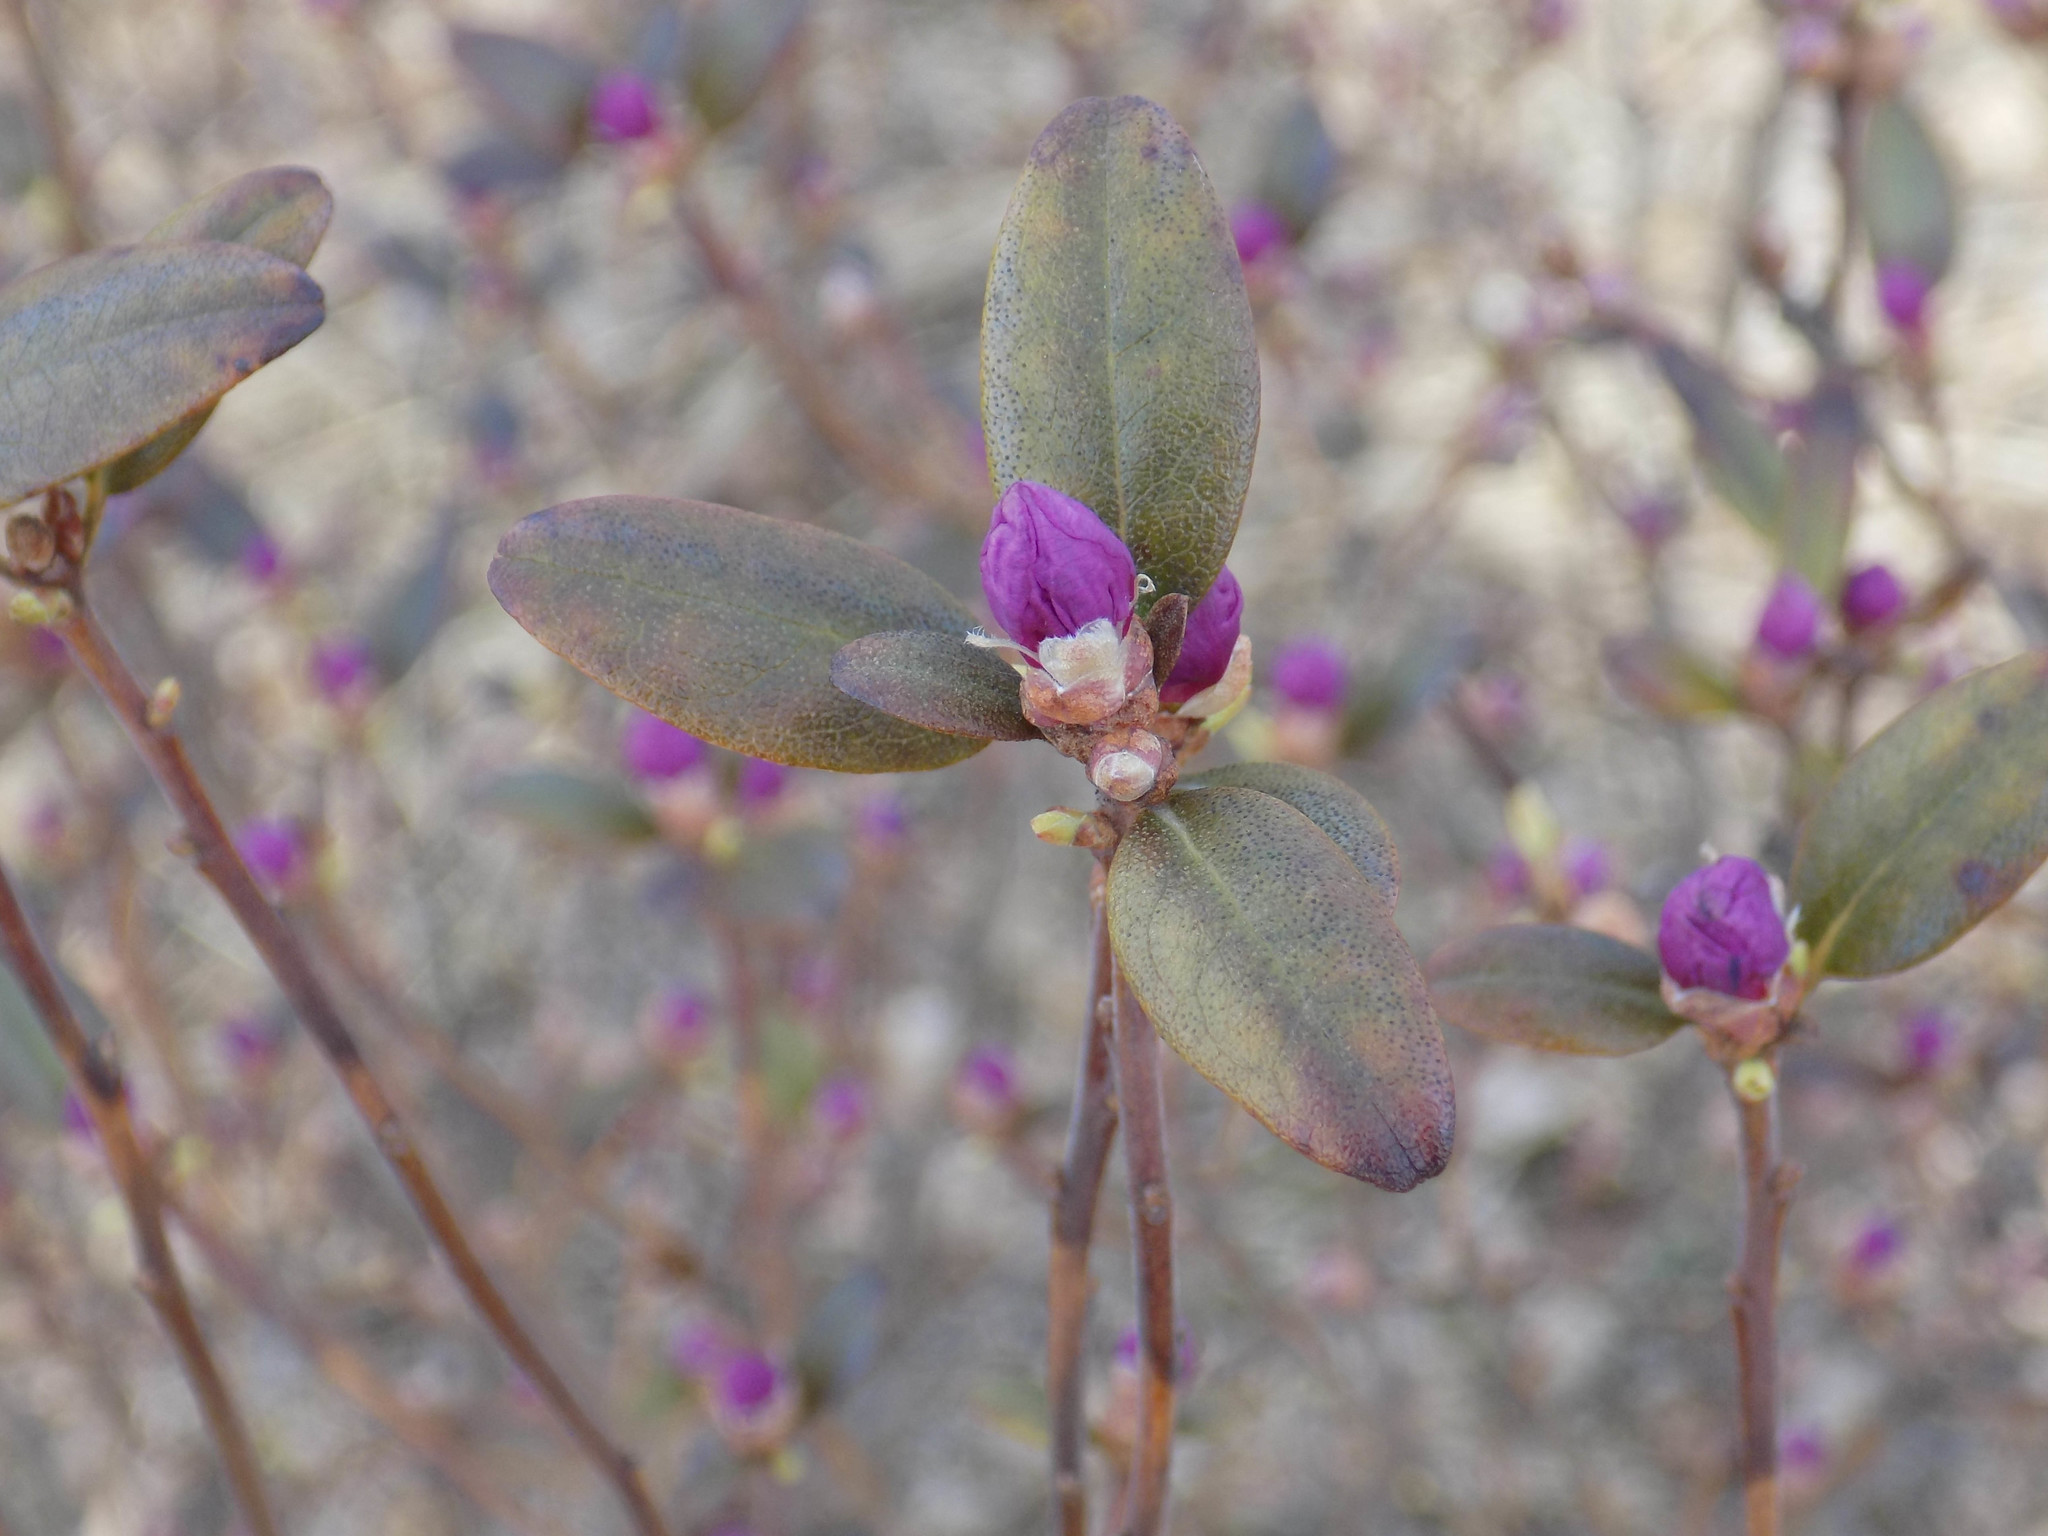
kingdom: Plantae
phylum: Tracheophyta
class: Magnoliopsida
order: Ericales
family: Ericaceae
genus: Rhododendron
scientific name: Rhododendron dauricum
